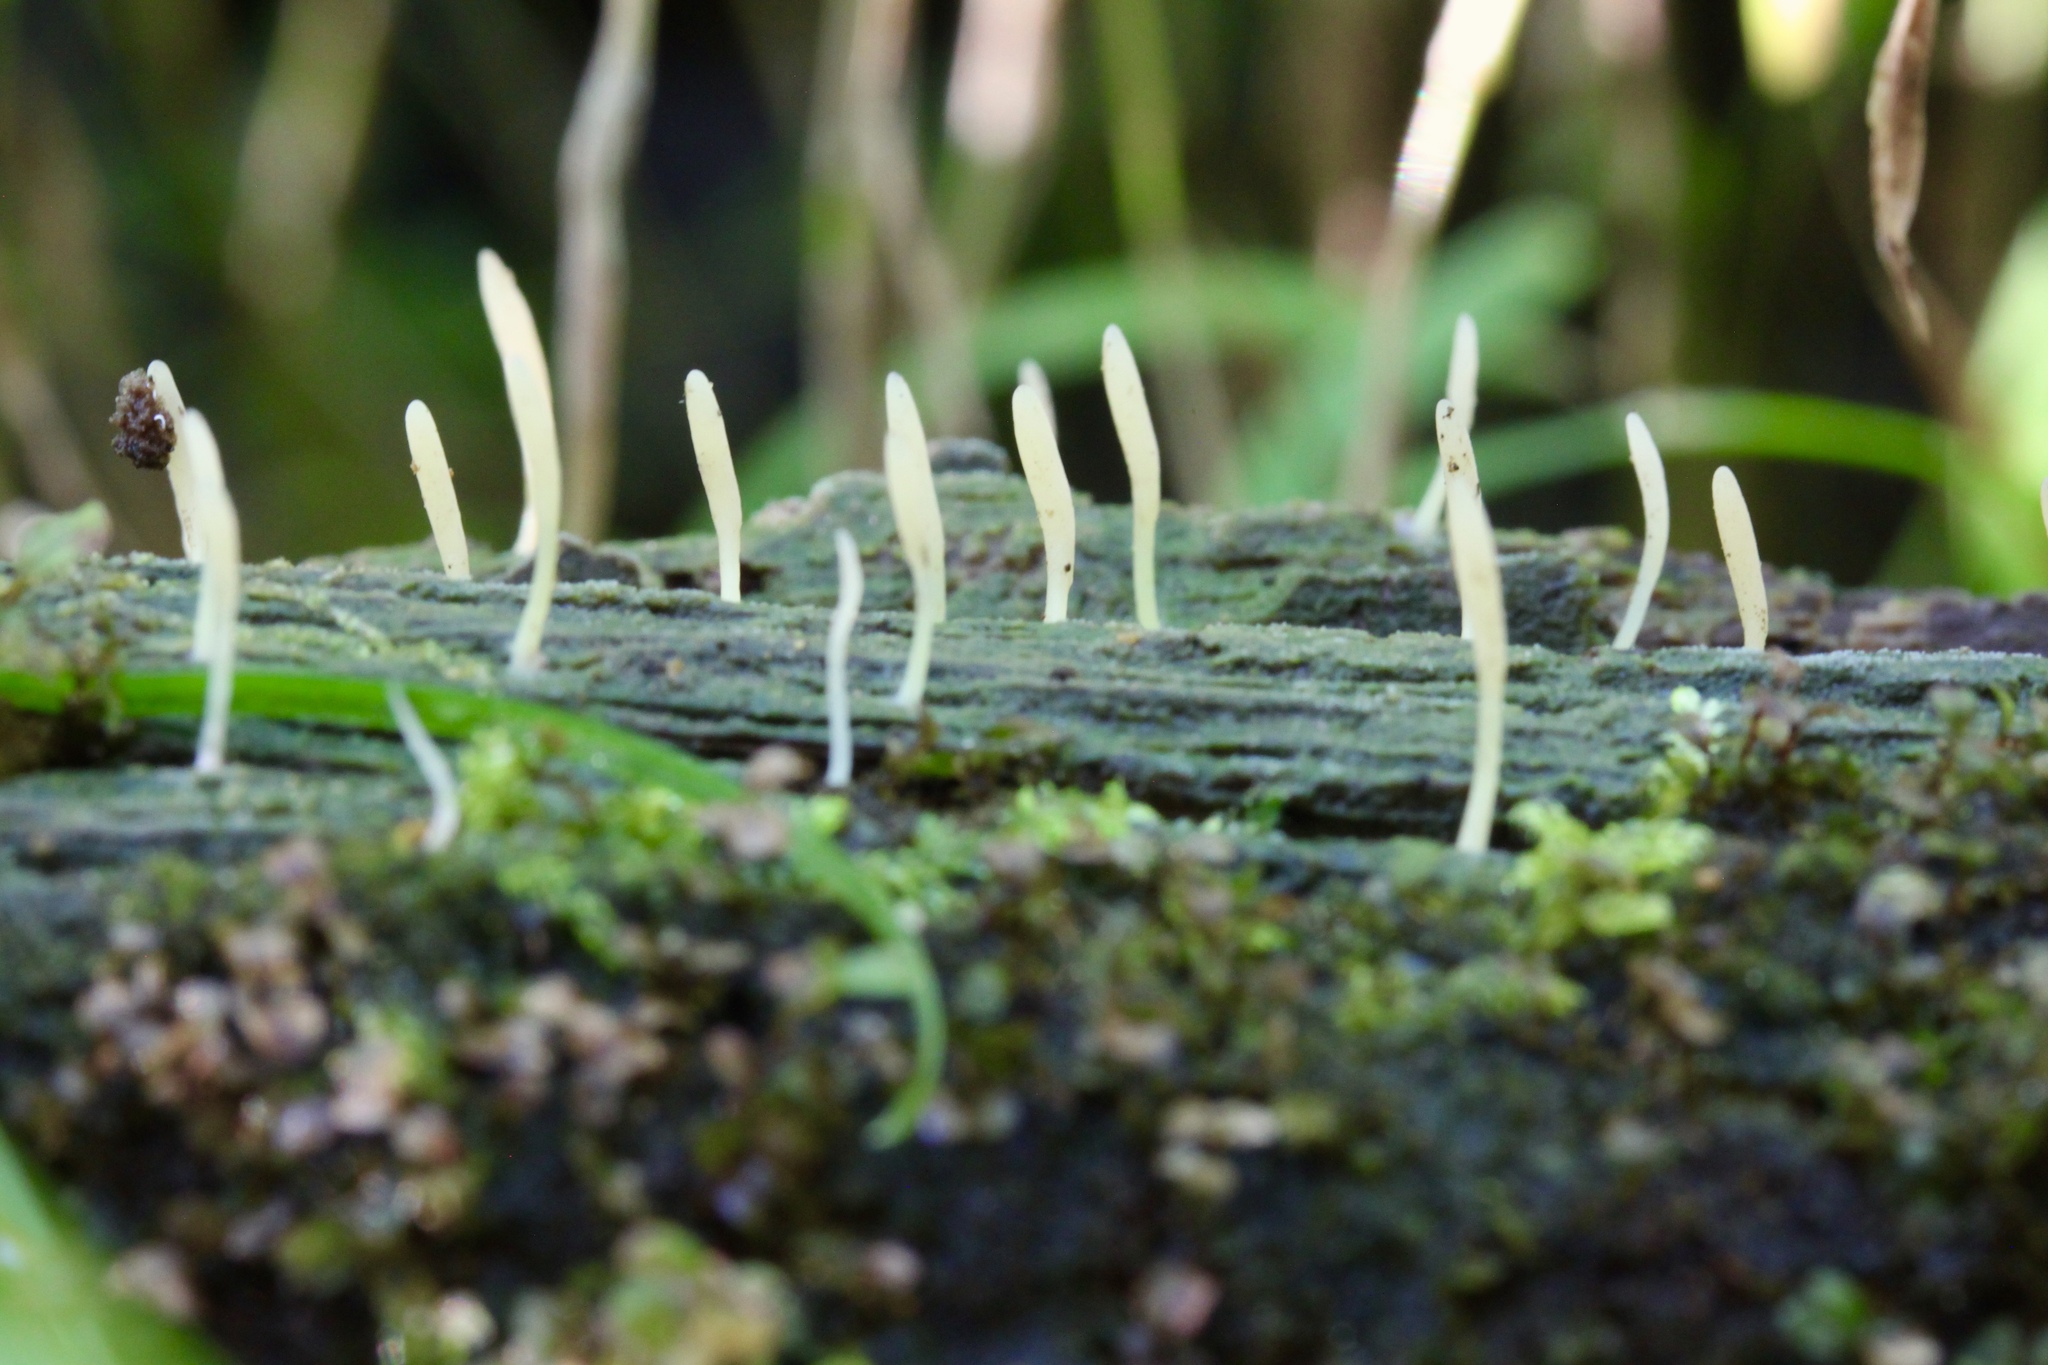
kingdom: Fungi
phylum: Basidiomycota
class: Agaricomycetes
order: Cantharellales
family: Hydnaceae
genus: Multiclavula
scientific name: Multiclavula mucida
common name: White green-algae coral
